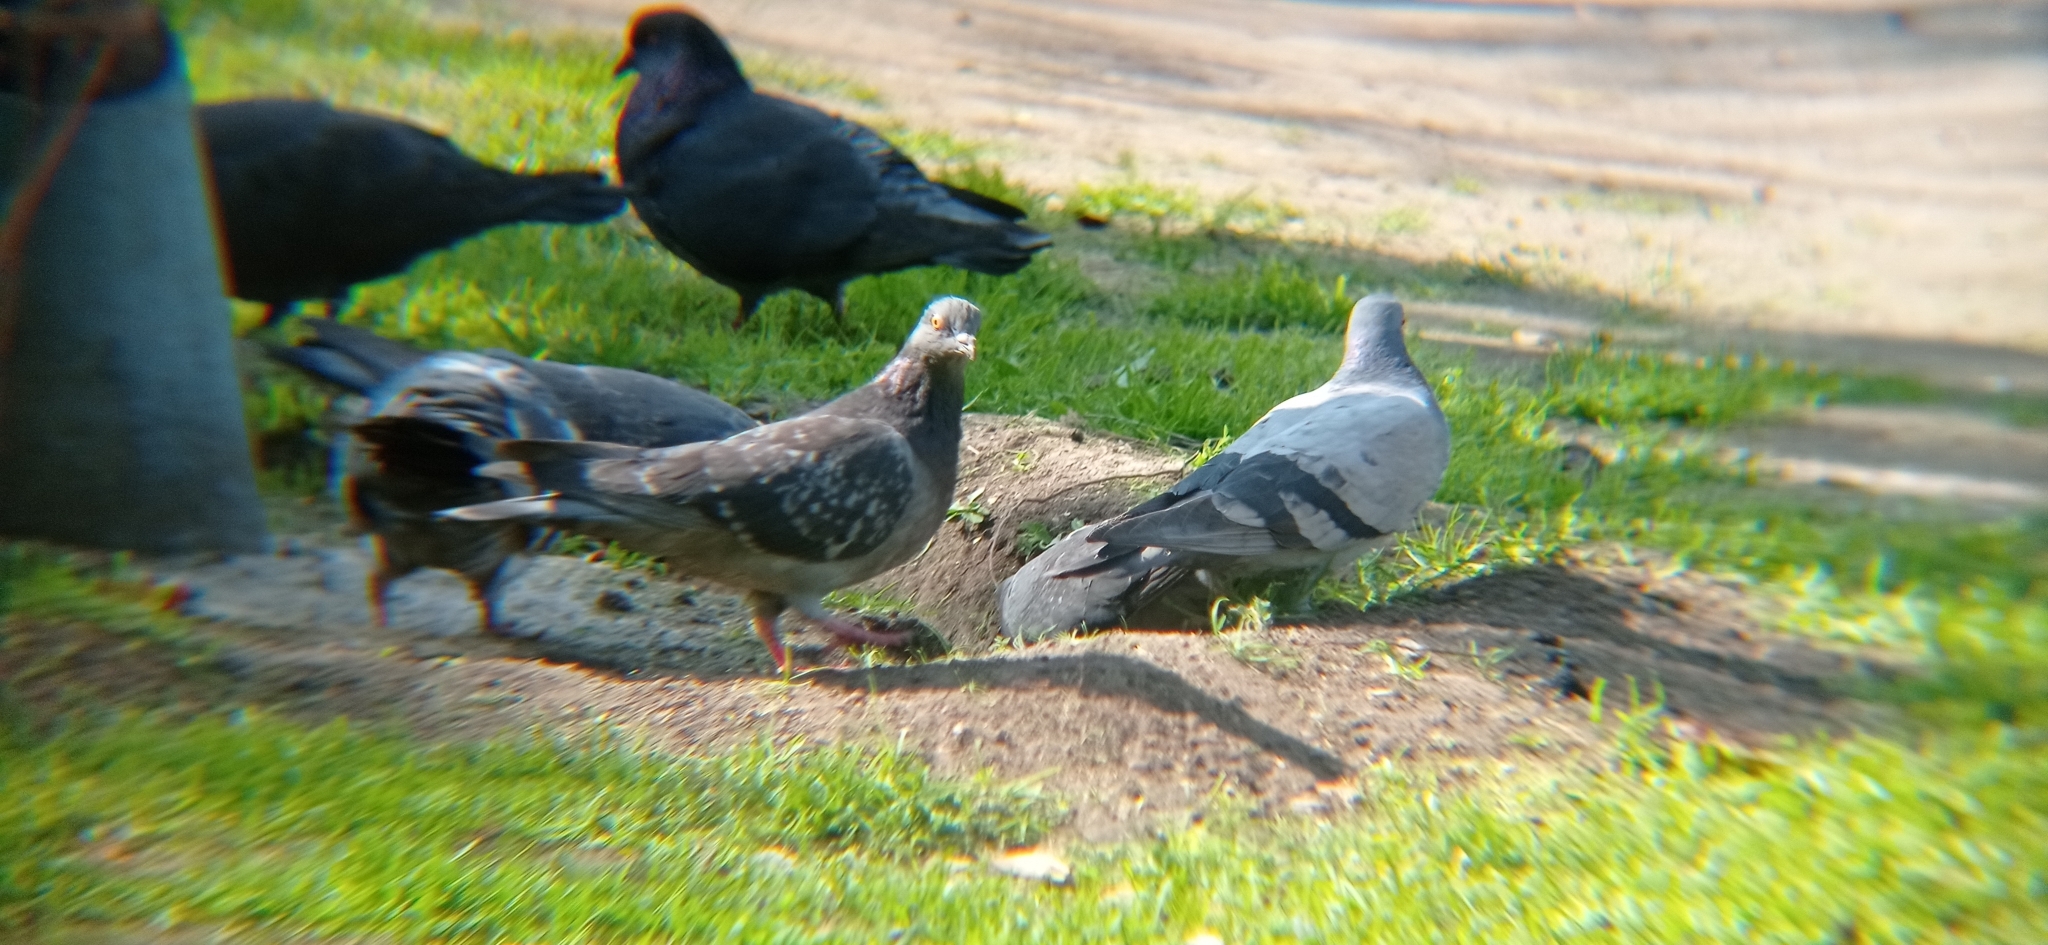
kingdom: Animalia
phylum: Chordata
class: Aves
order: Columbiformes
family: Columbidae
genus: Columba
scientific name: Columba livia
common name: Rock pigeon
